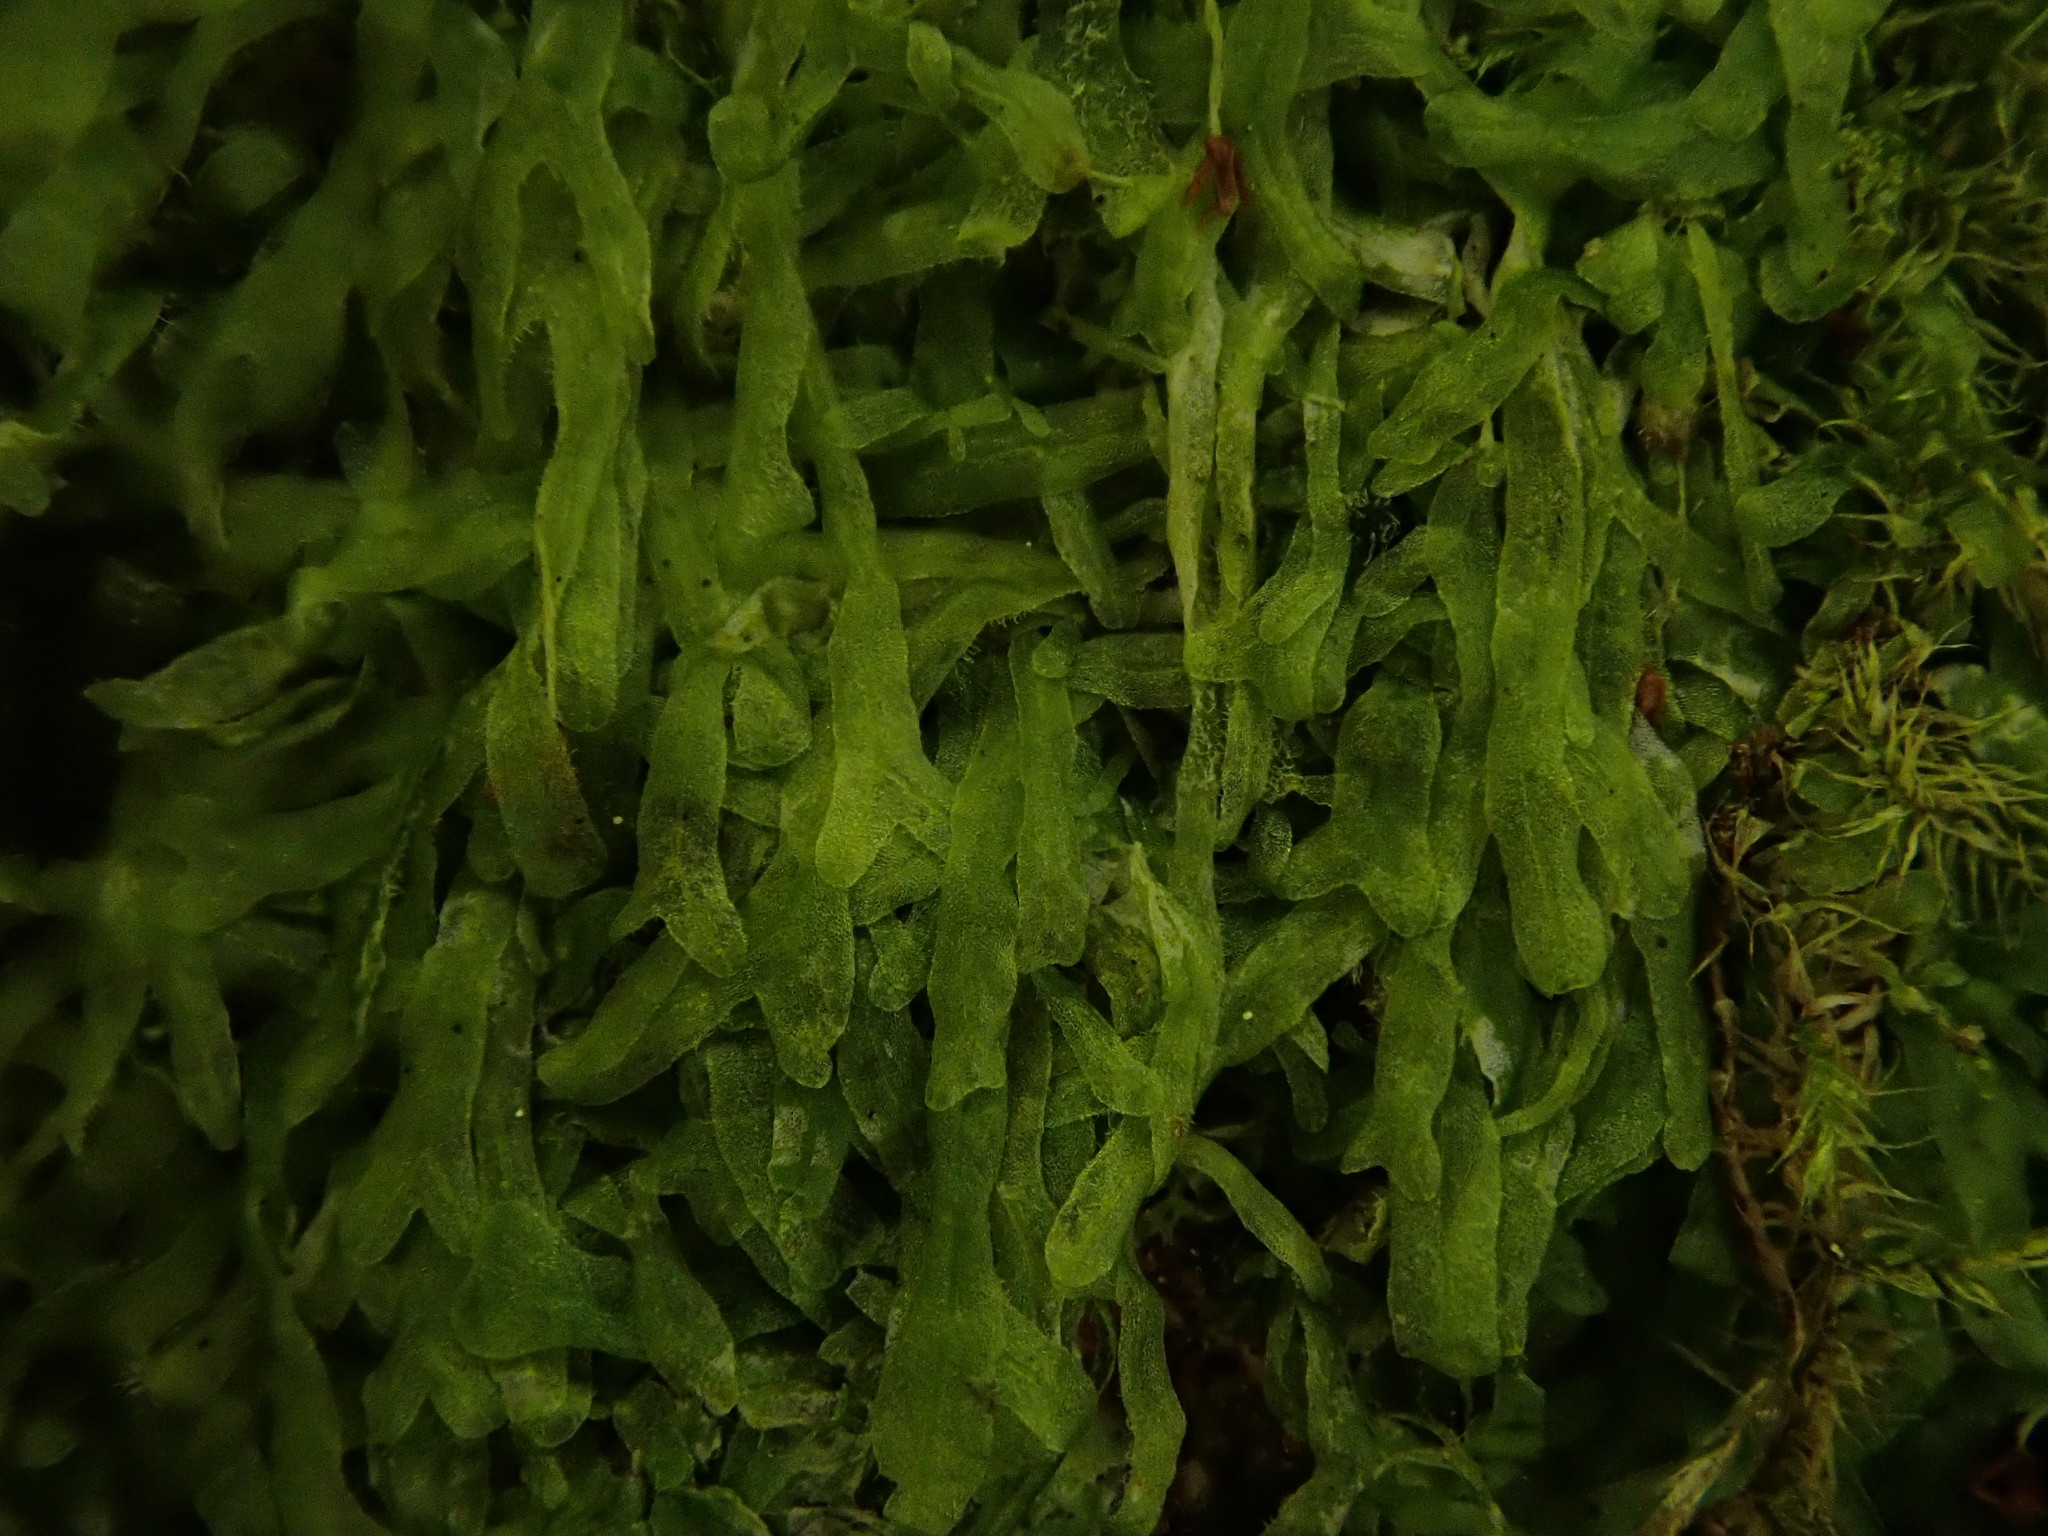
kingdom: Plantae
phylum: Marchantiophyta
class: Jungermanniopsida
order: Metzgeriales
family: Metzgeriaceae
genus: Metzgeria
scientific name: Metzgeria furcata
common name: Forked veilwort
